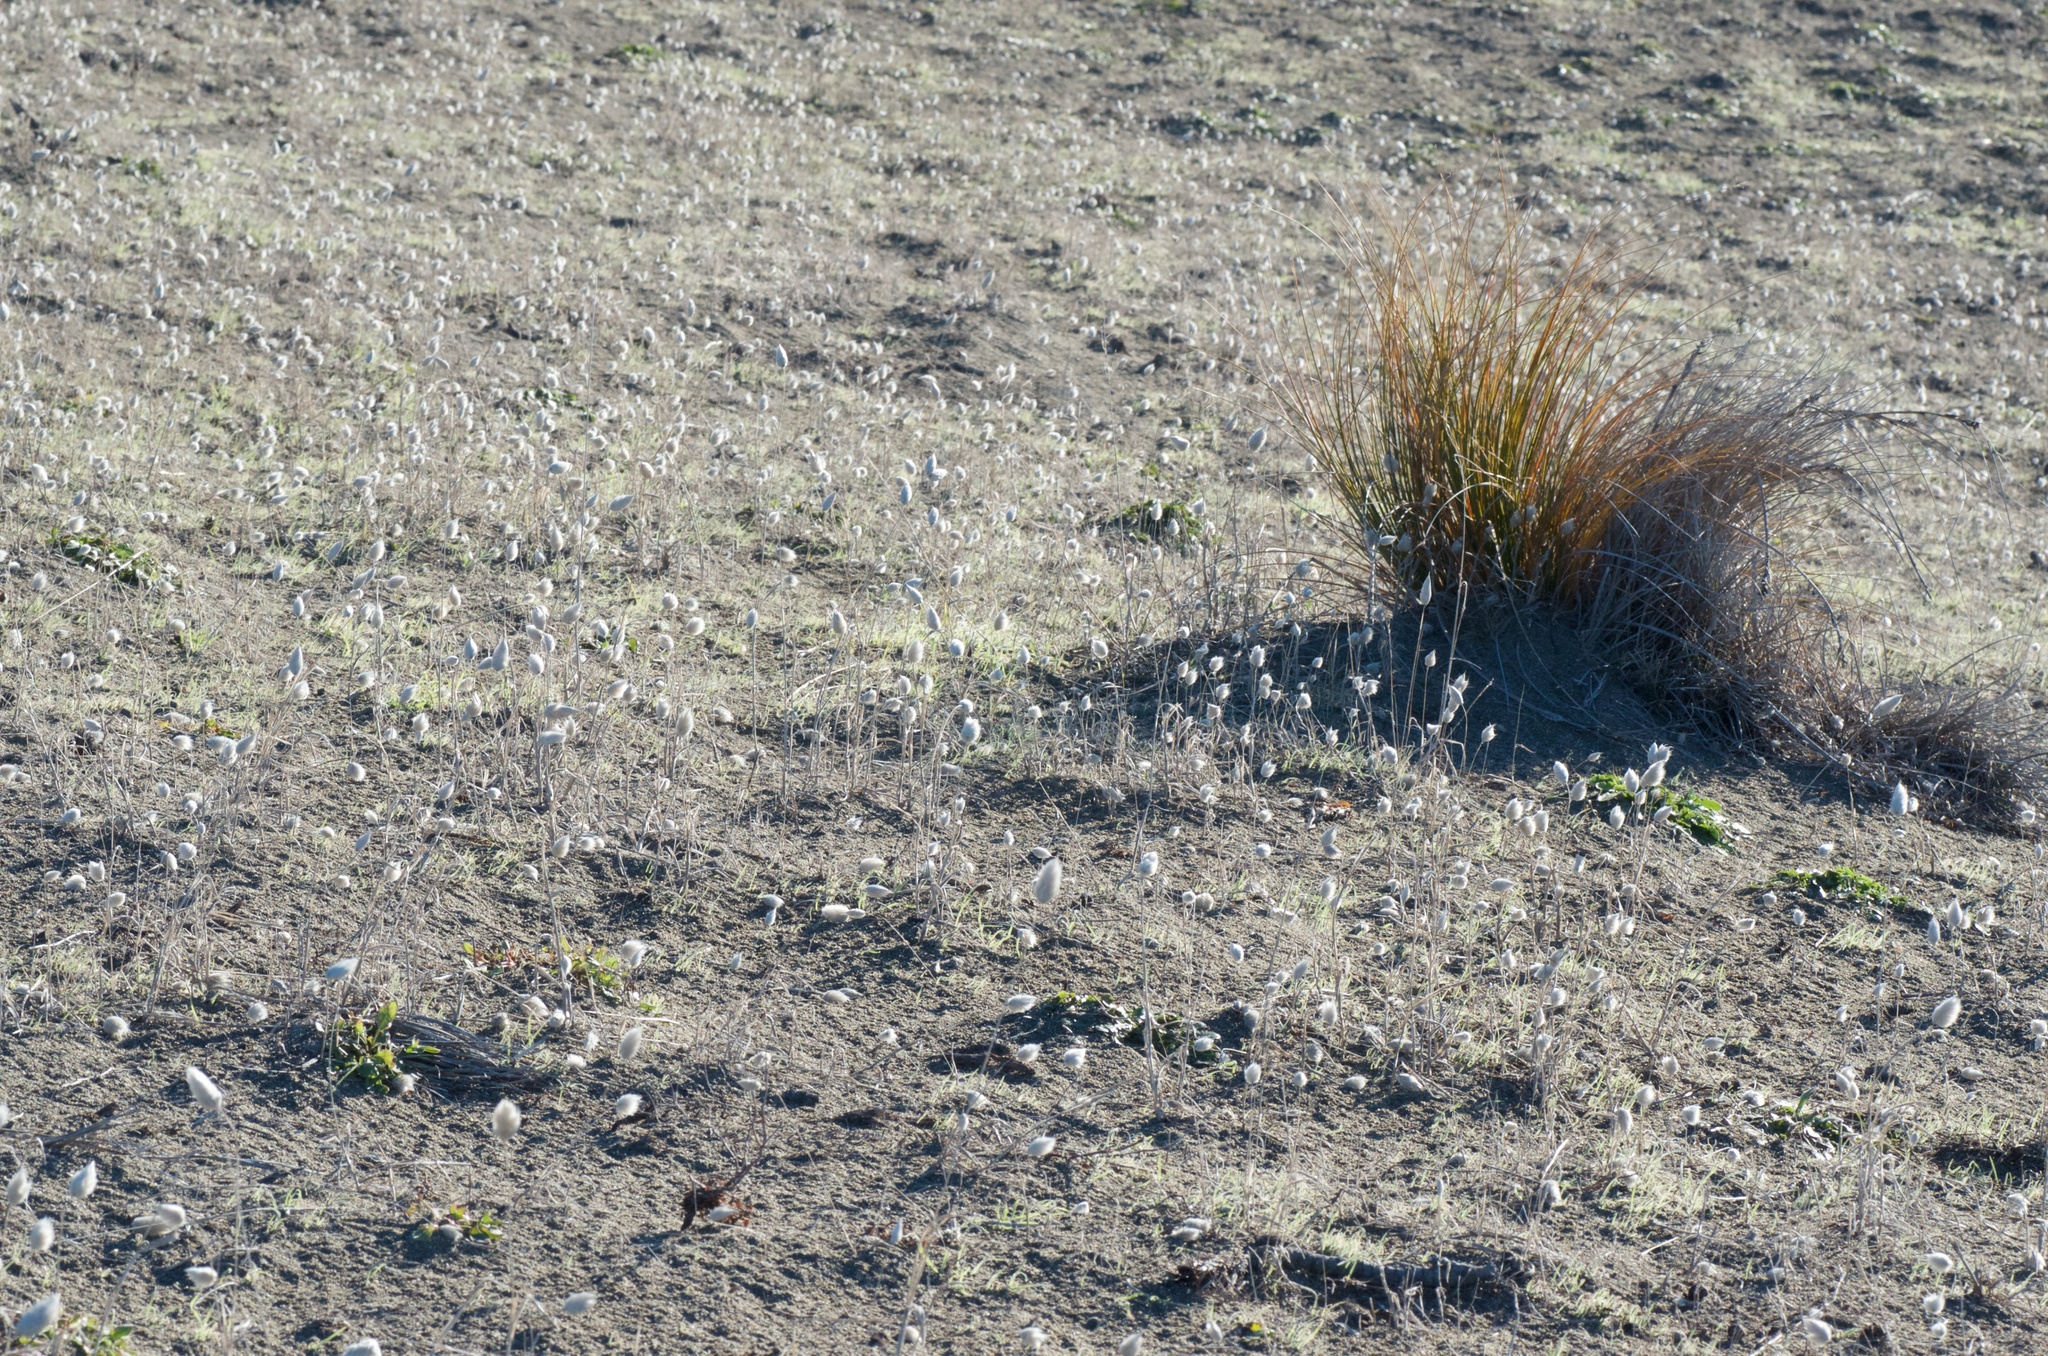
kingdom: Plantae
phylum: Tracheophyta
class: Liliopsida
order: Poales
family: Poaceae
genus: Lagurus
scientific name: Lagurus ovatus
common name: Hare's-tail
